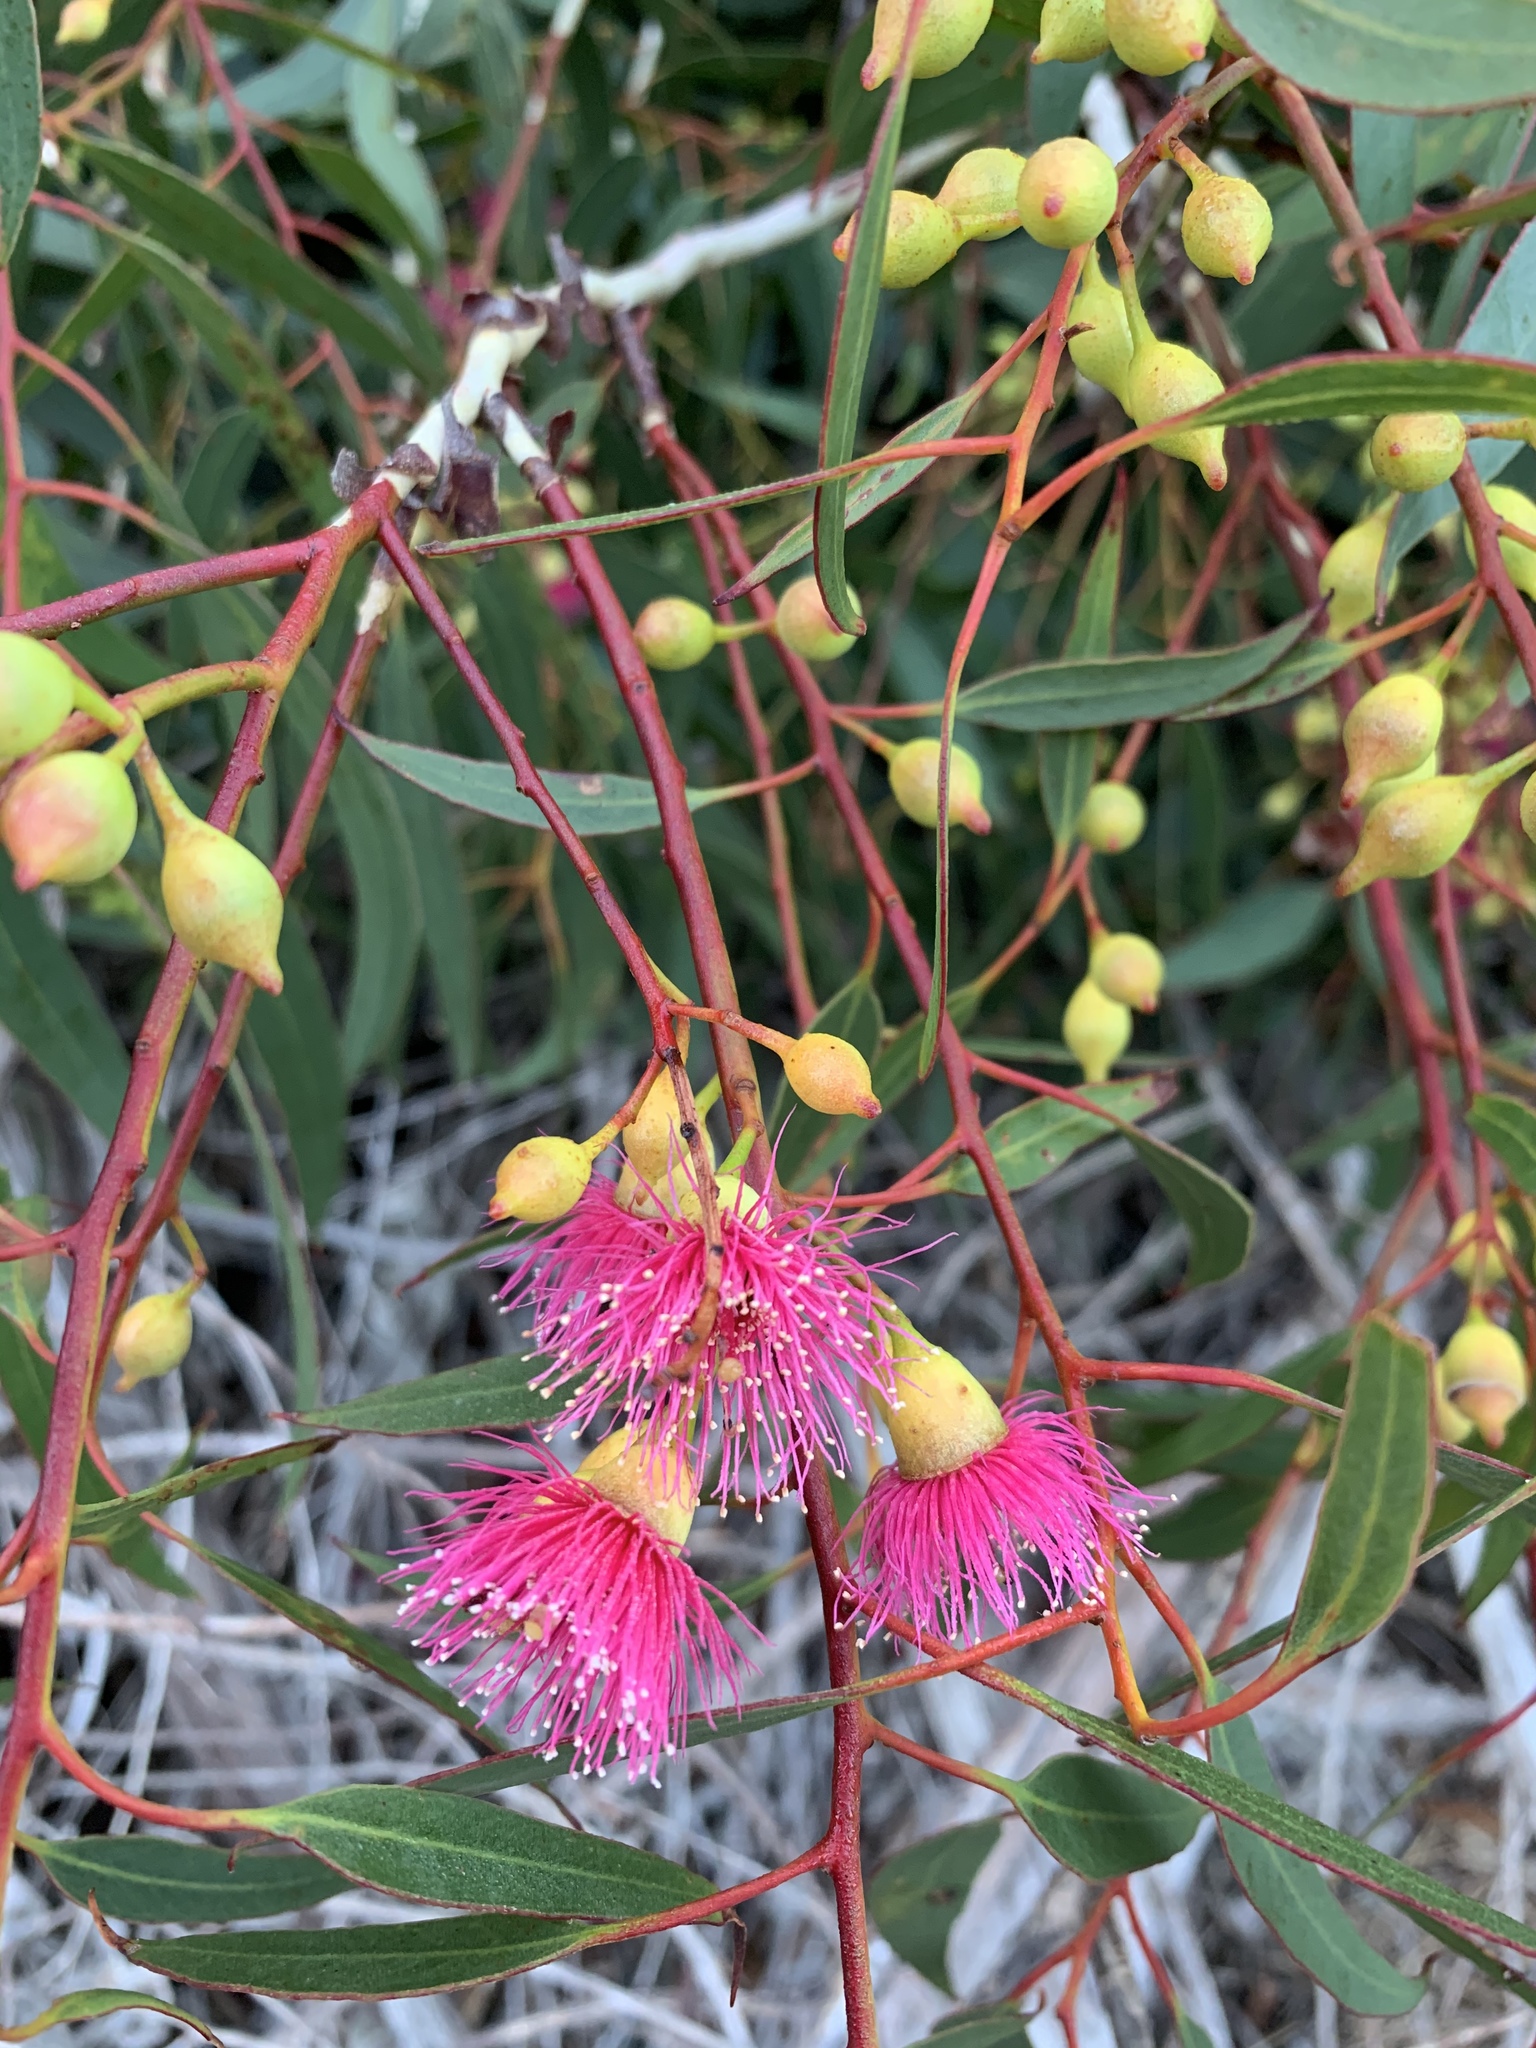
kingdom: Plantae
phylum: Tracheophyta
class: Magnoliopsida
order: Myrtales
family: Myrtaceae
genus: Eucalyptus
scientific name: Eucalyptus leucoxylon
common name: Blue gum
